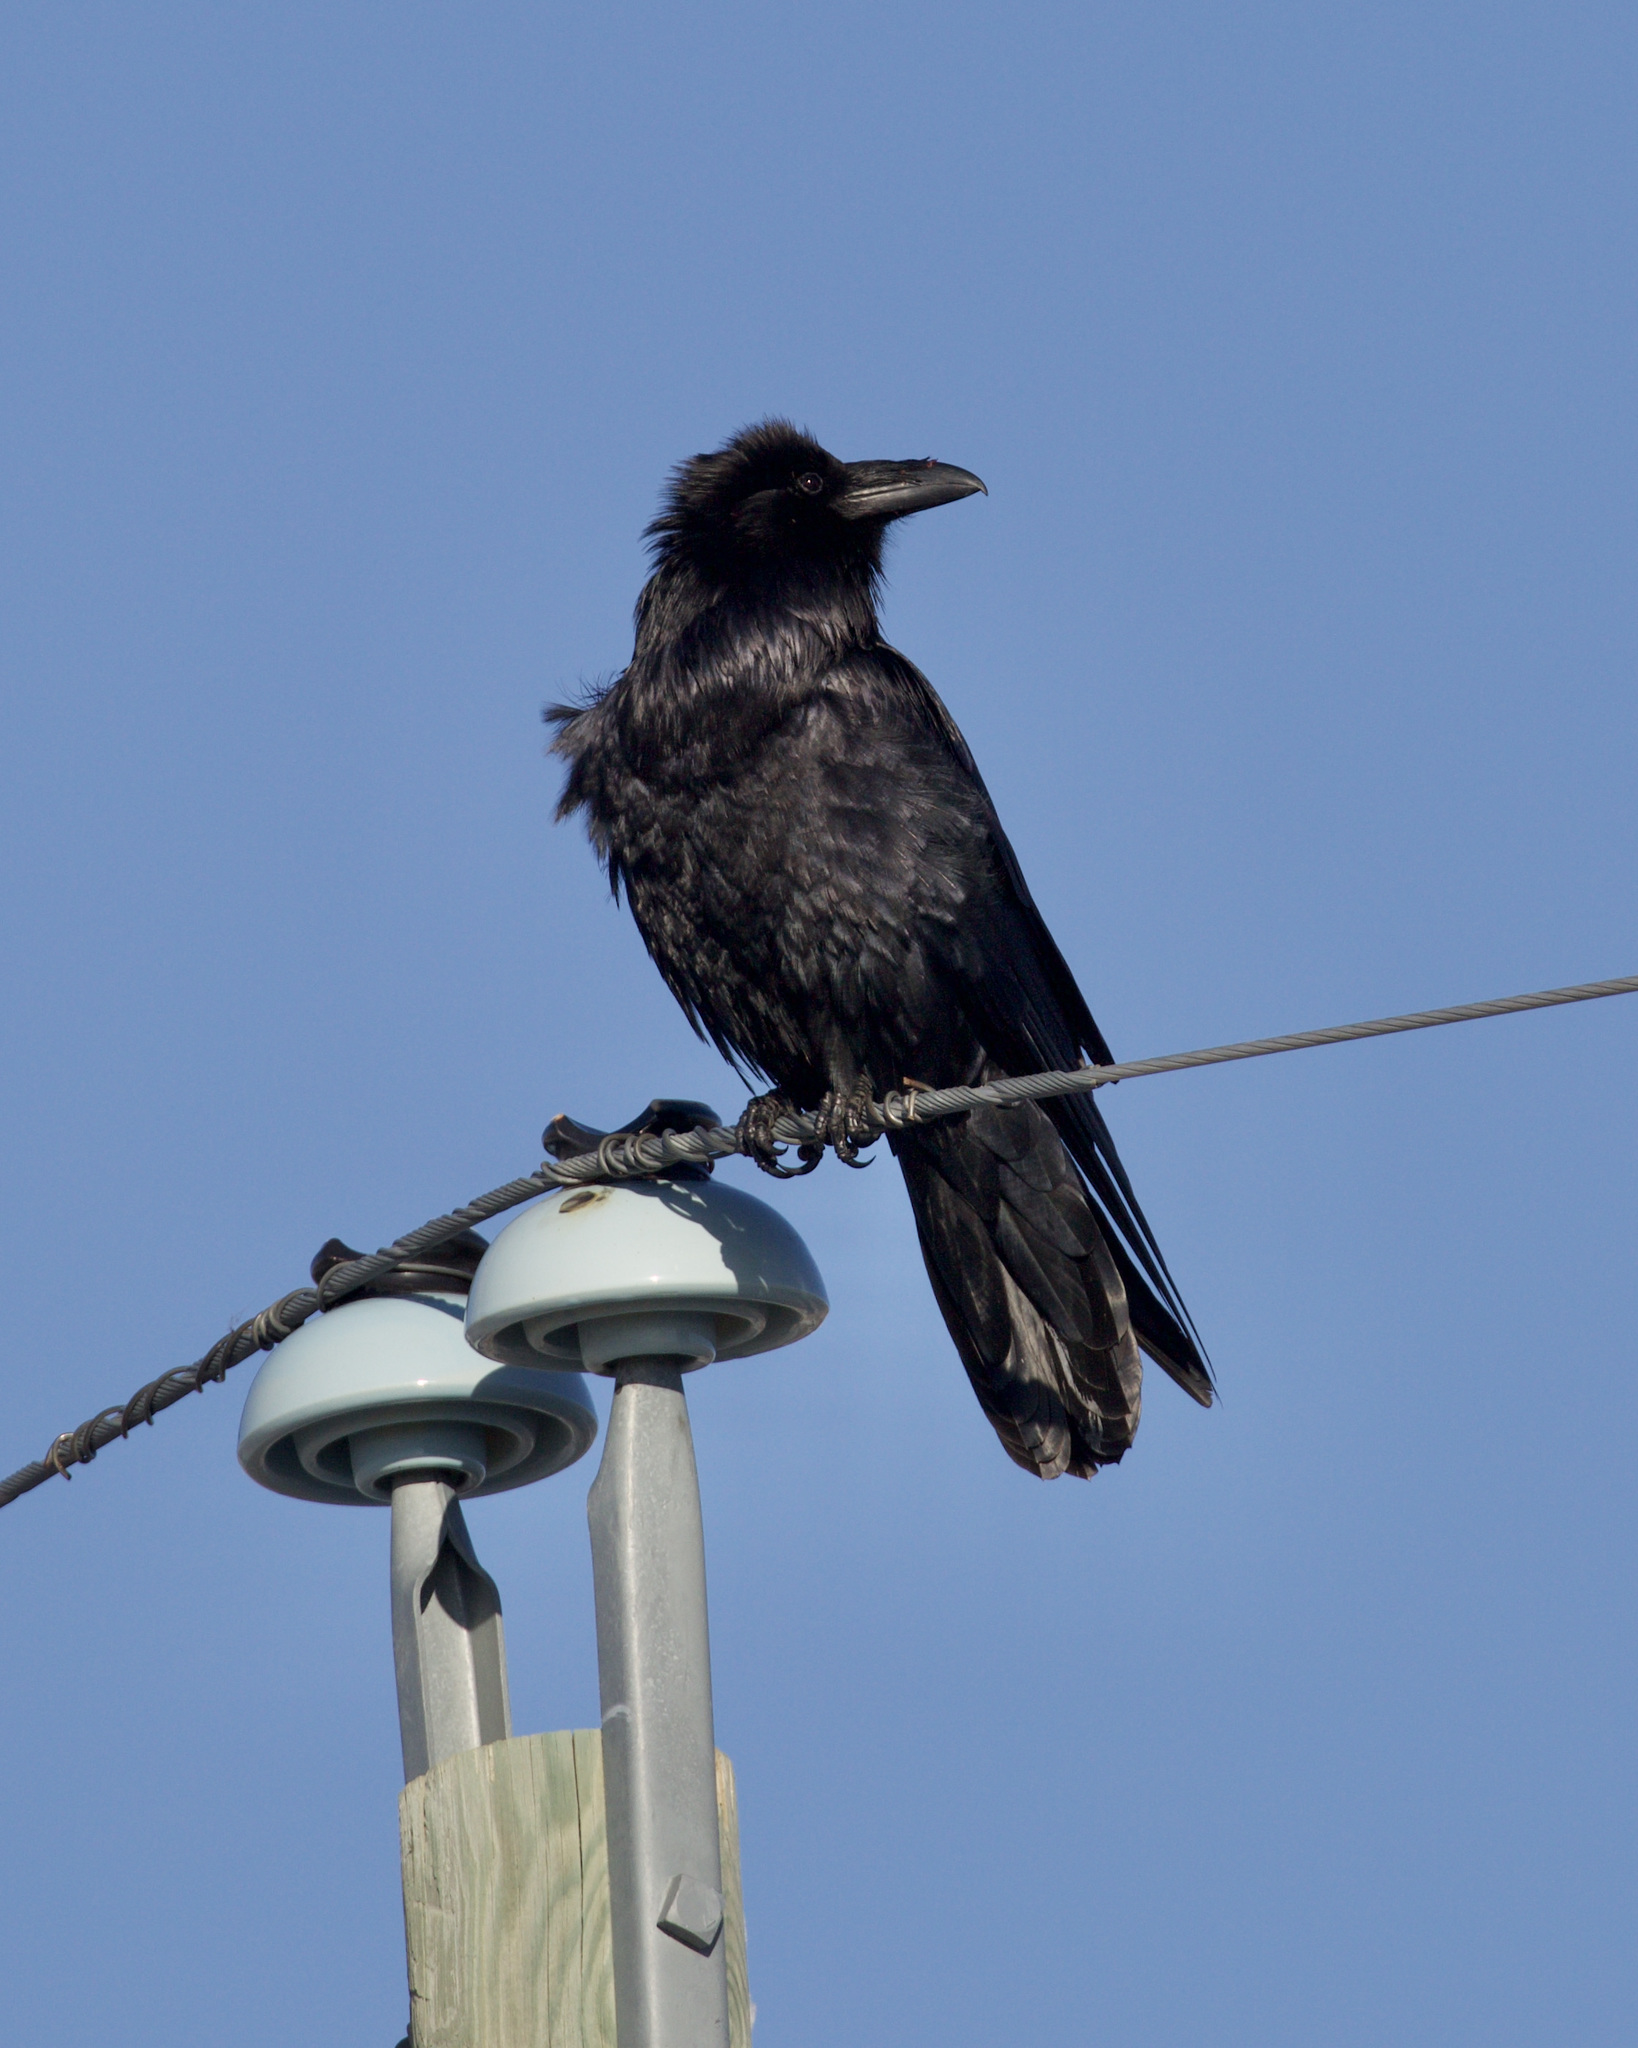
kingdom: Animalia
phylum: Chordata
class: Aves
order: Passeriformes
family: Corvidae
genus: Corvus
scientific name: Corvus corax
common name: Common raven
